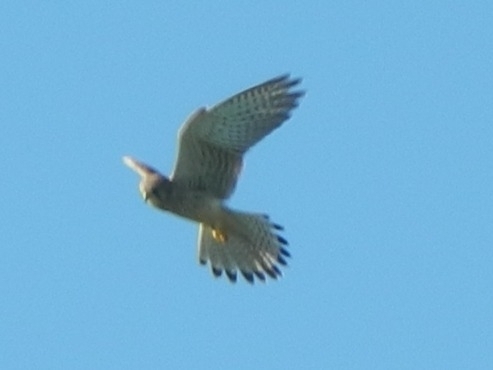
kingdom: Animalia
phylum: Chordata
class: Aves
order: Falconiformes
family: Falconidae
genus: Falco
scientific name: Falco tinnunculus
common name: Common kestrel
